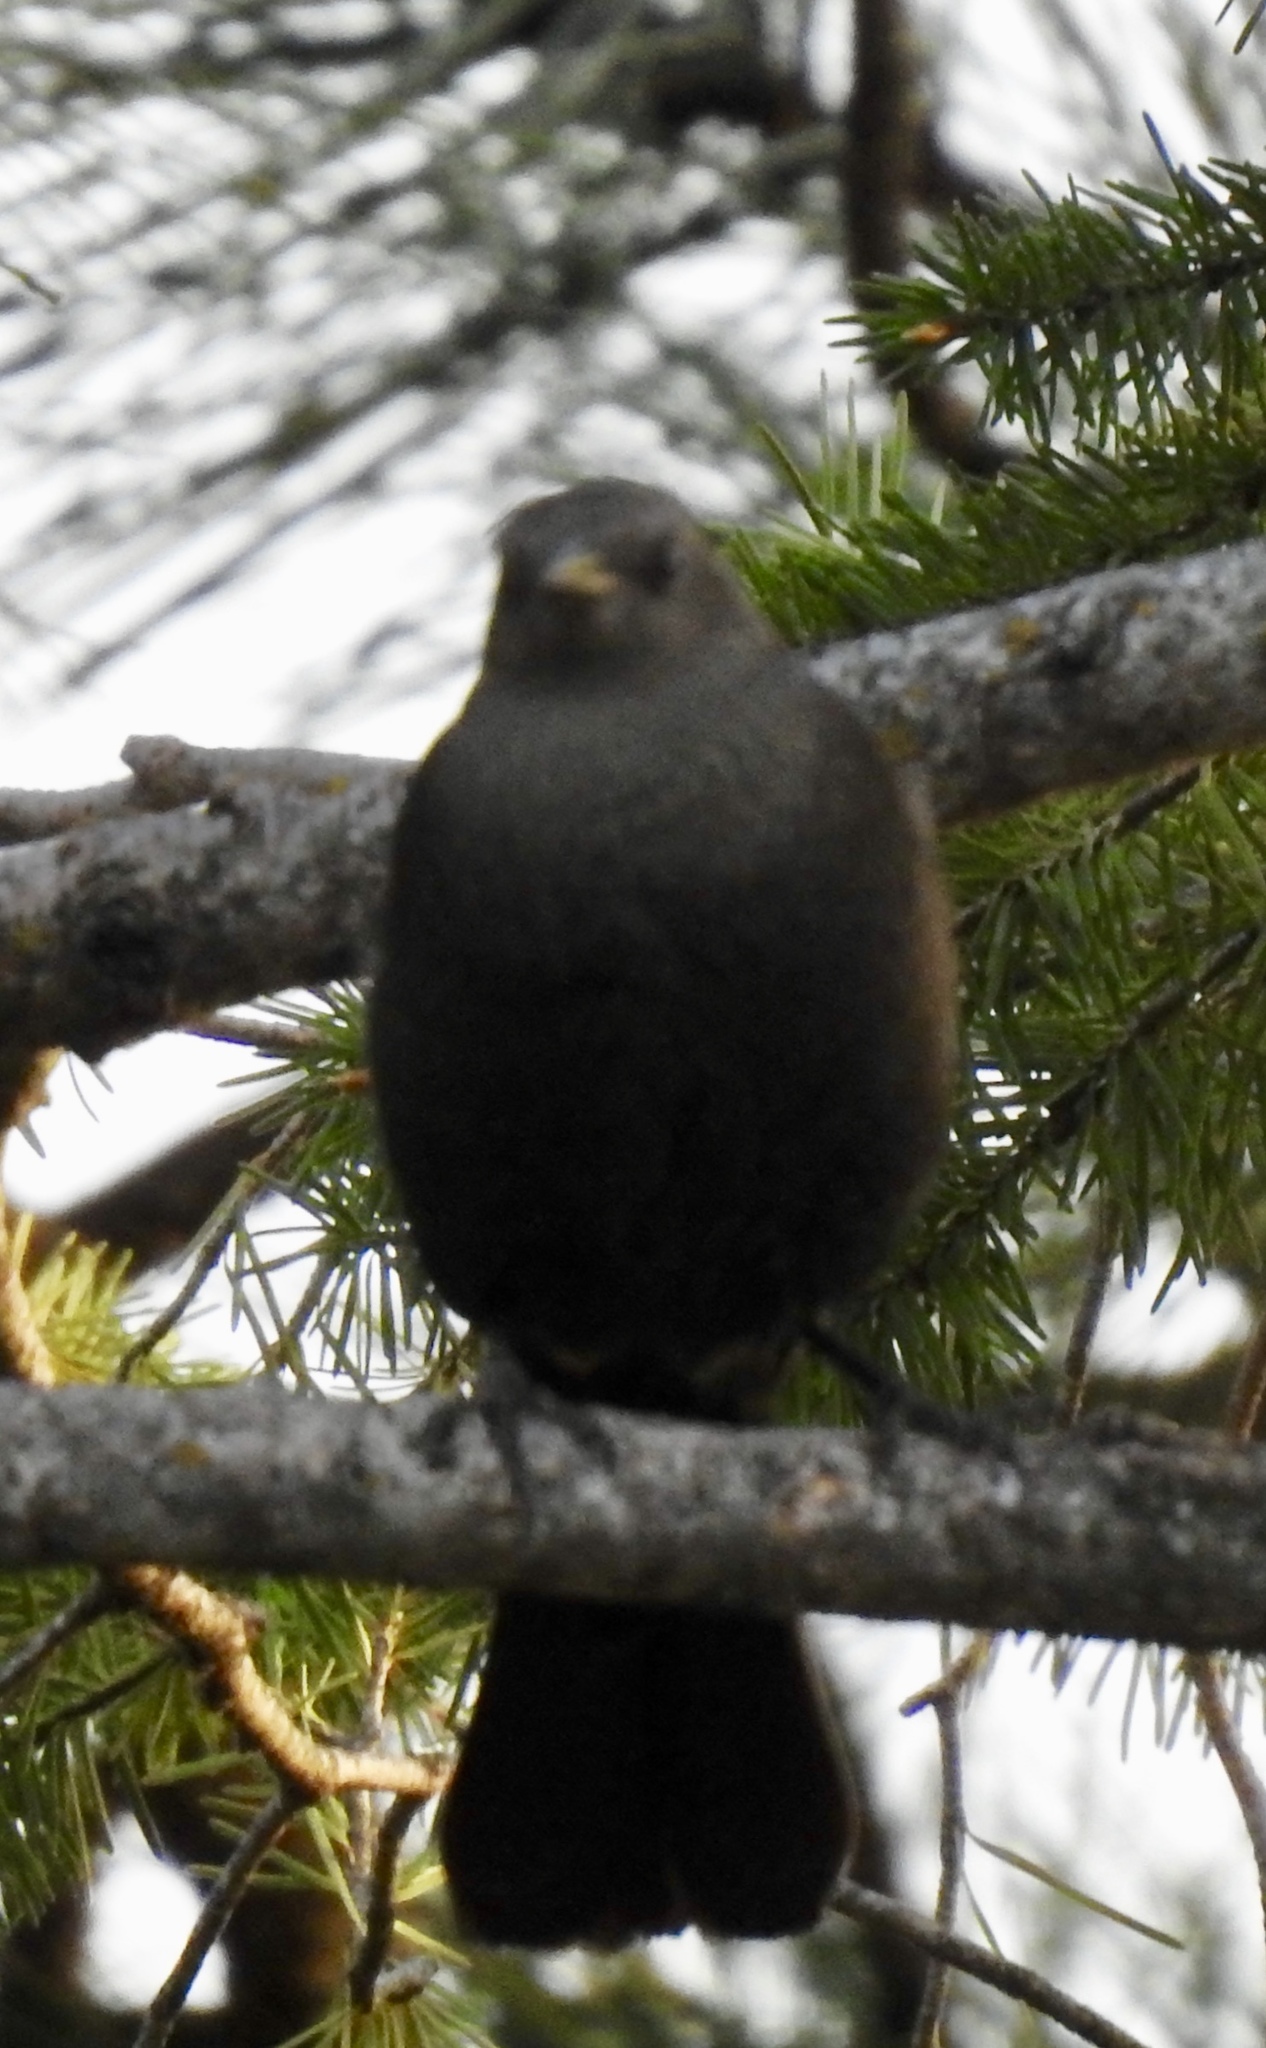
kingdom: Animalia
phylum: Chordata
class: Aves
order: Passeriformes
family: Icteridae
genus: Euphagus
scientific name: Euphagus cyanocephalus
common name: Brewer's blackbird
